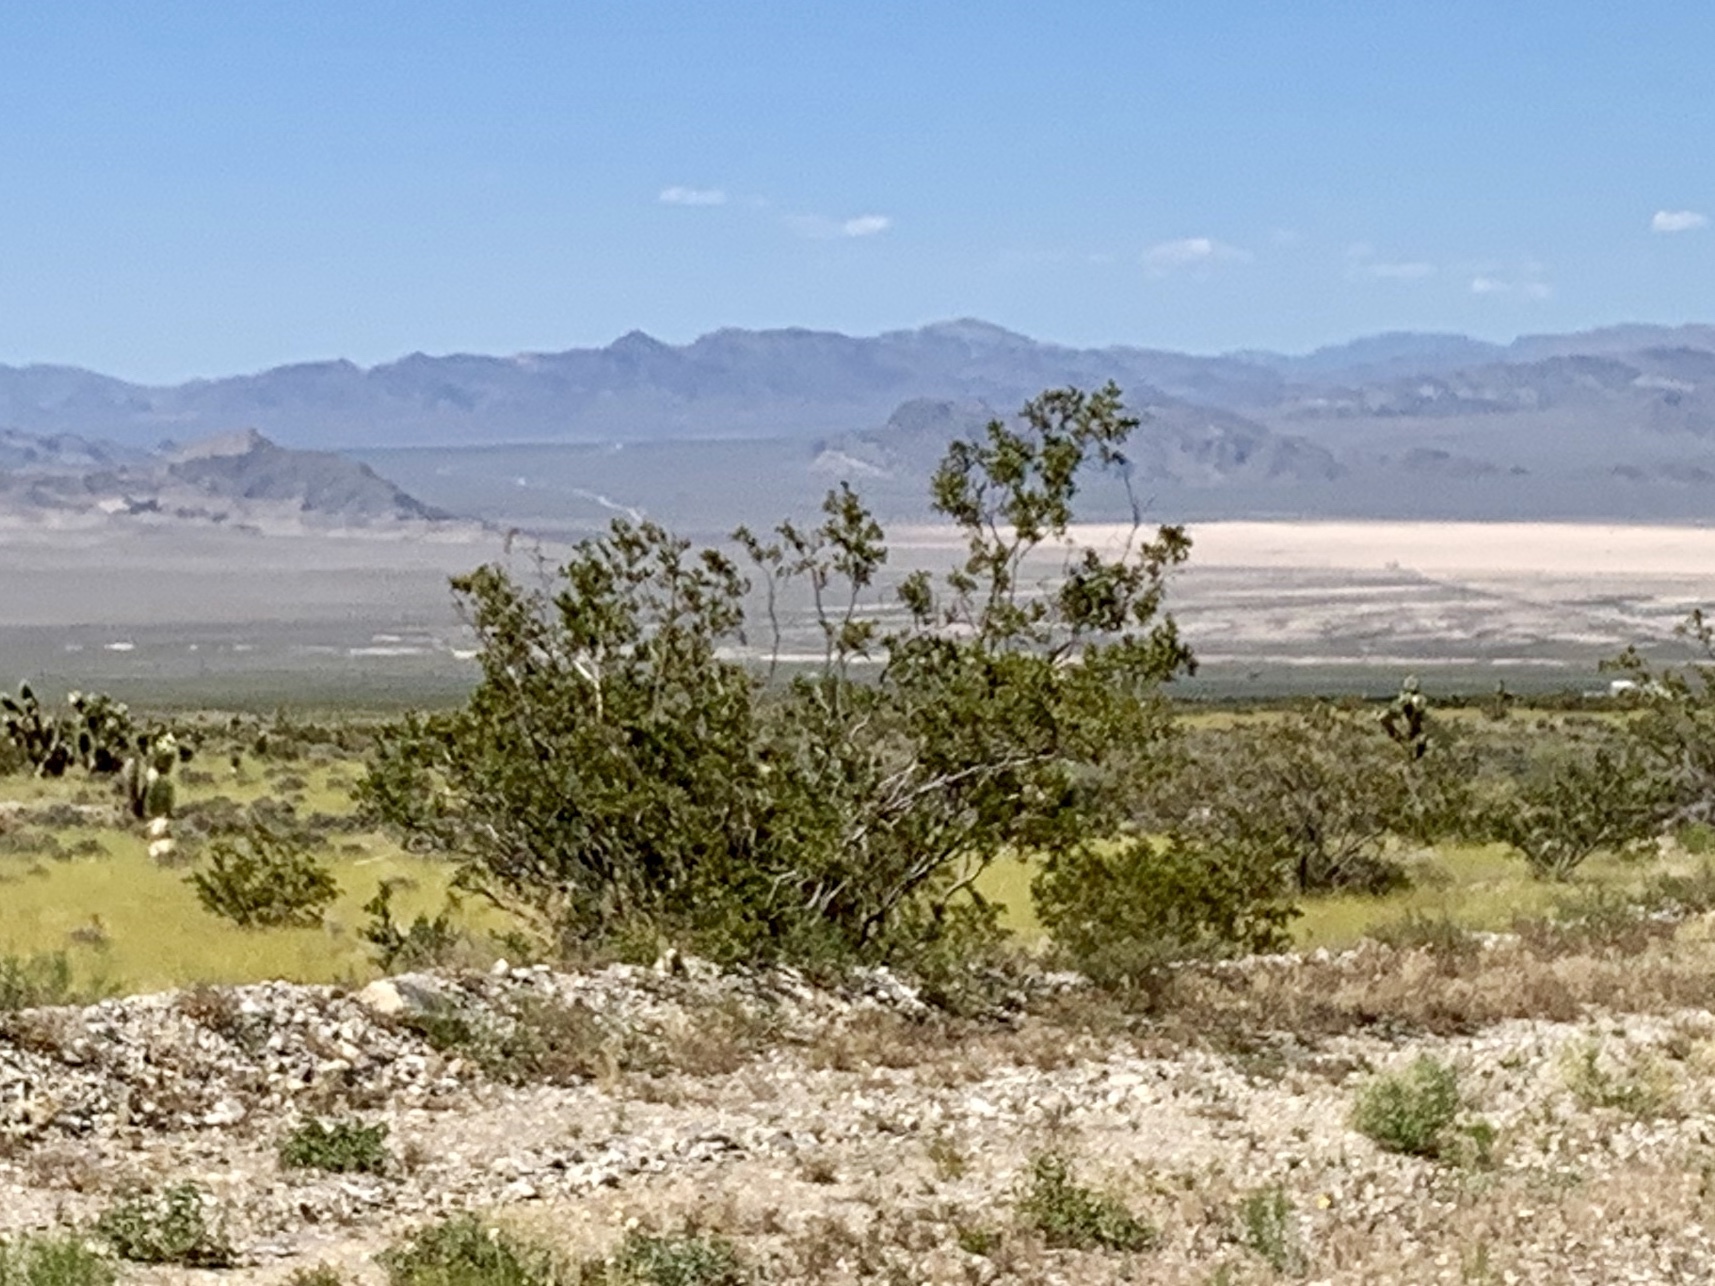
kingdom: Plantae
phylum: Tracheophyta
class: Magnoliopsida
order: Zygophyllales
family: Zygophyllaceae
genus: Larrea
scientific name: Larrea tridentata
